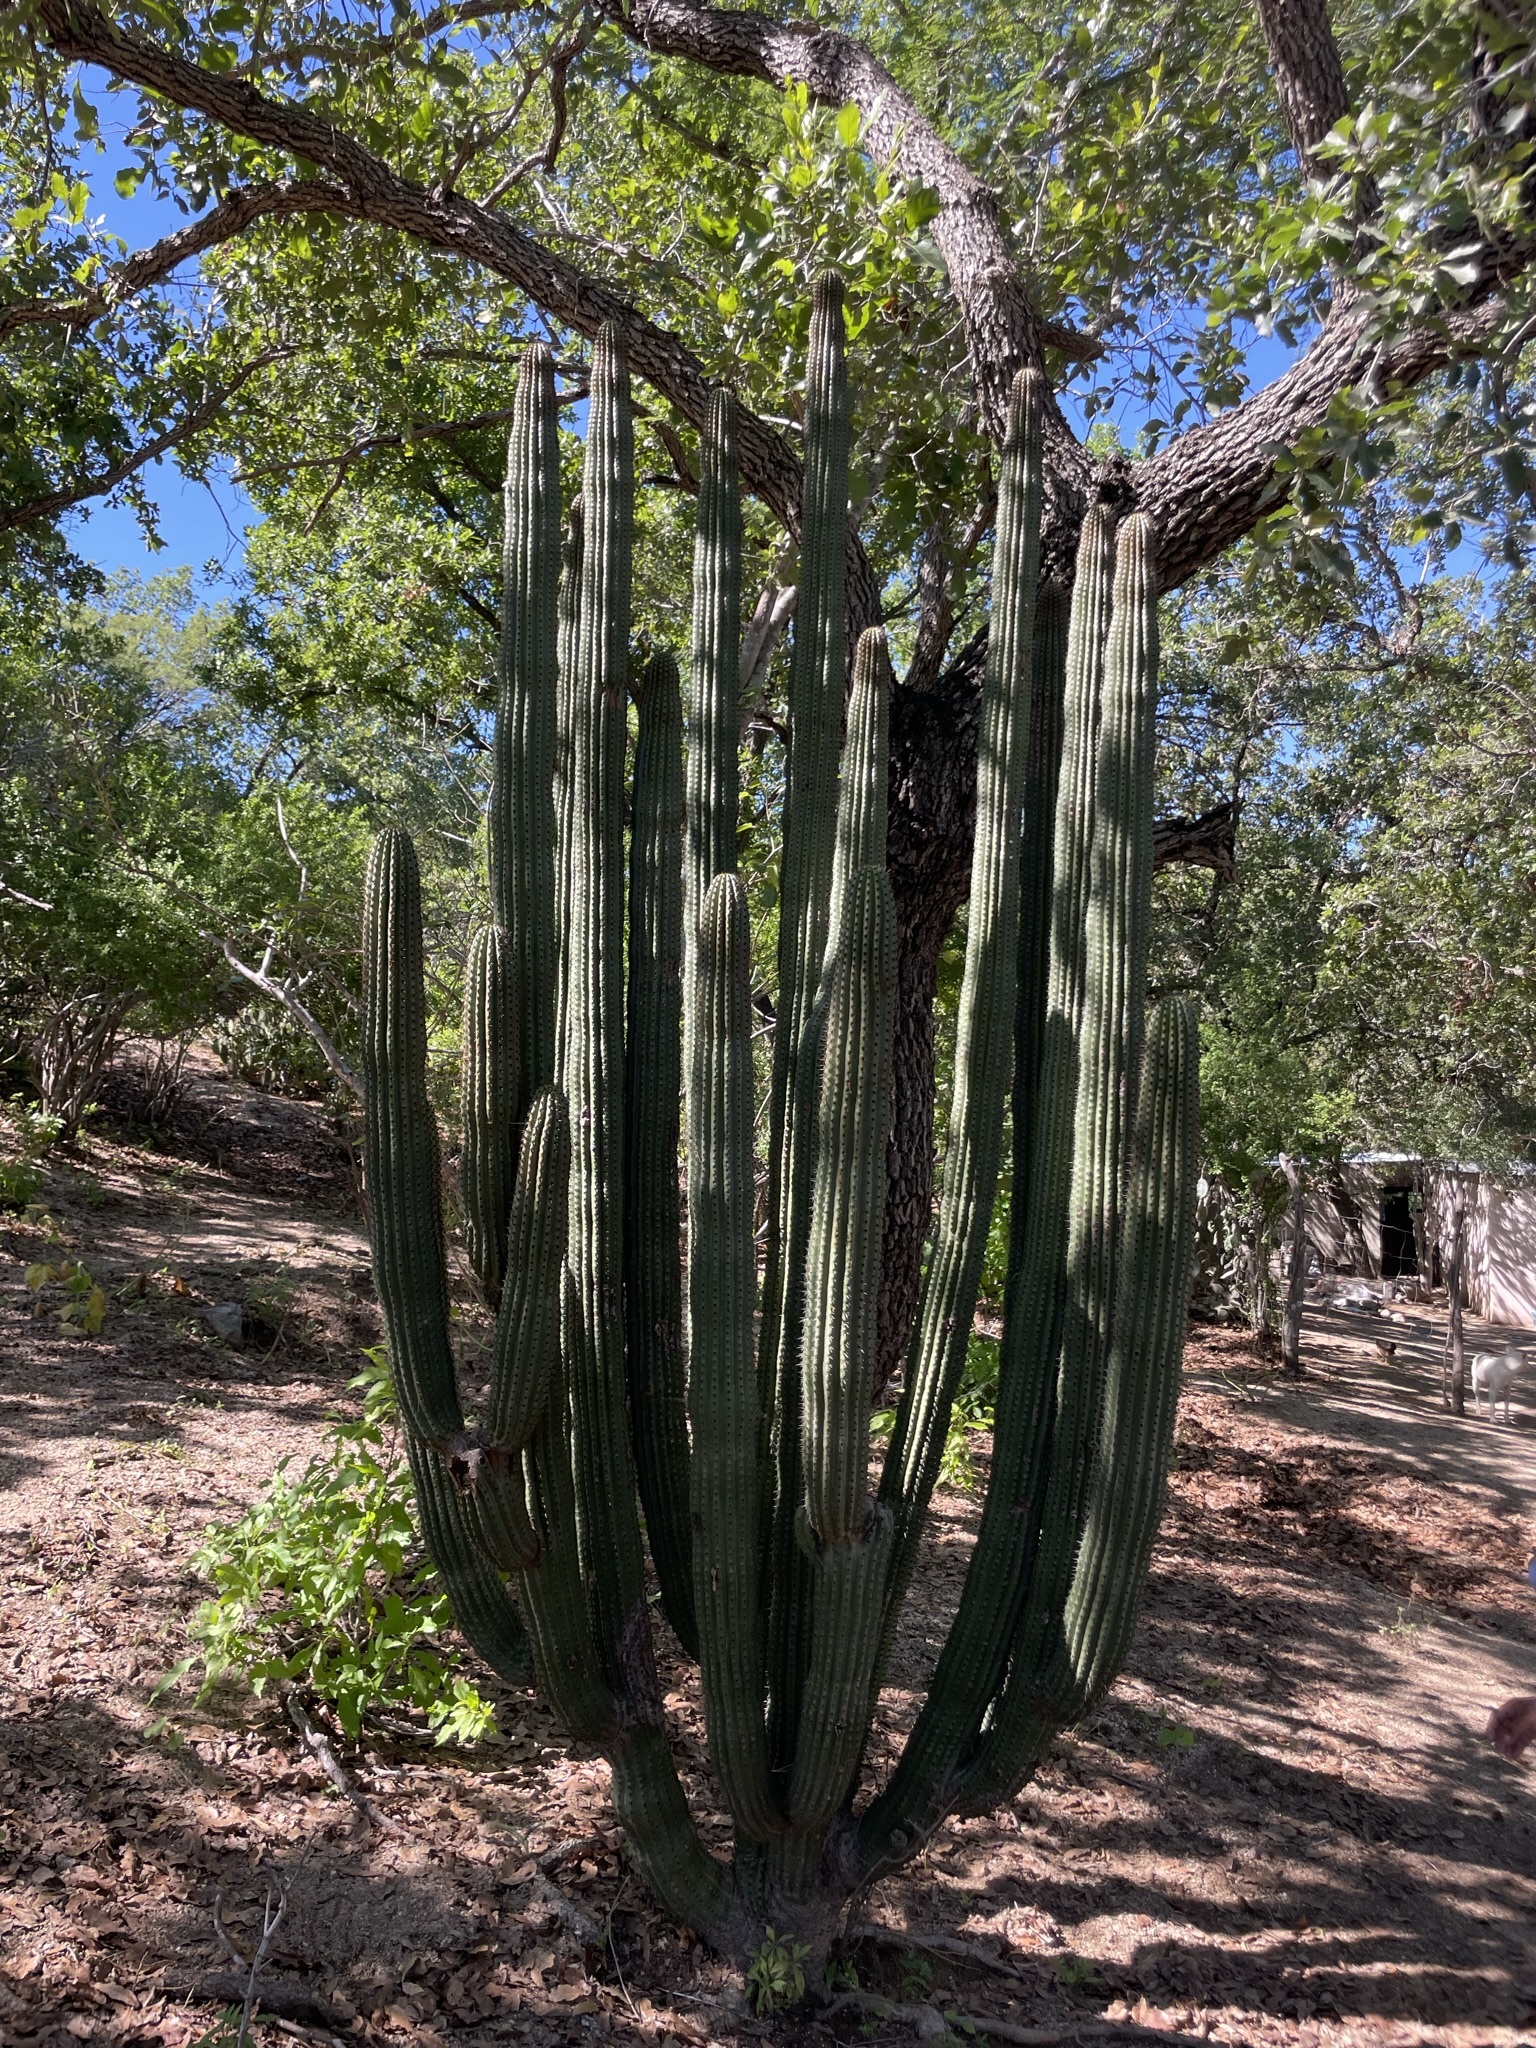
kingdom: Plantae
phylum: Tracheophyta
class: Magnoliopsida
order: Caryophyllales
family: Cactaceae
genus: Stenocereus
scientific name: Stenocereus thurberi
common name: Organ pipe cactus
